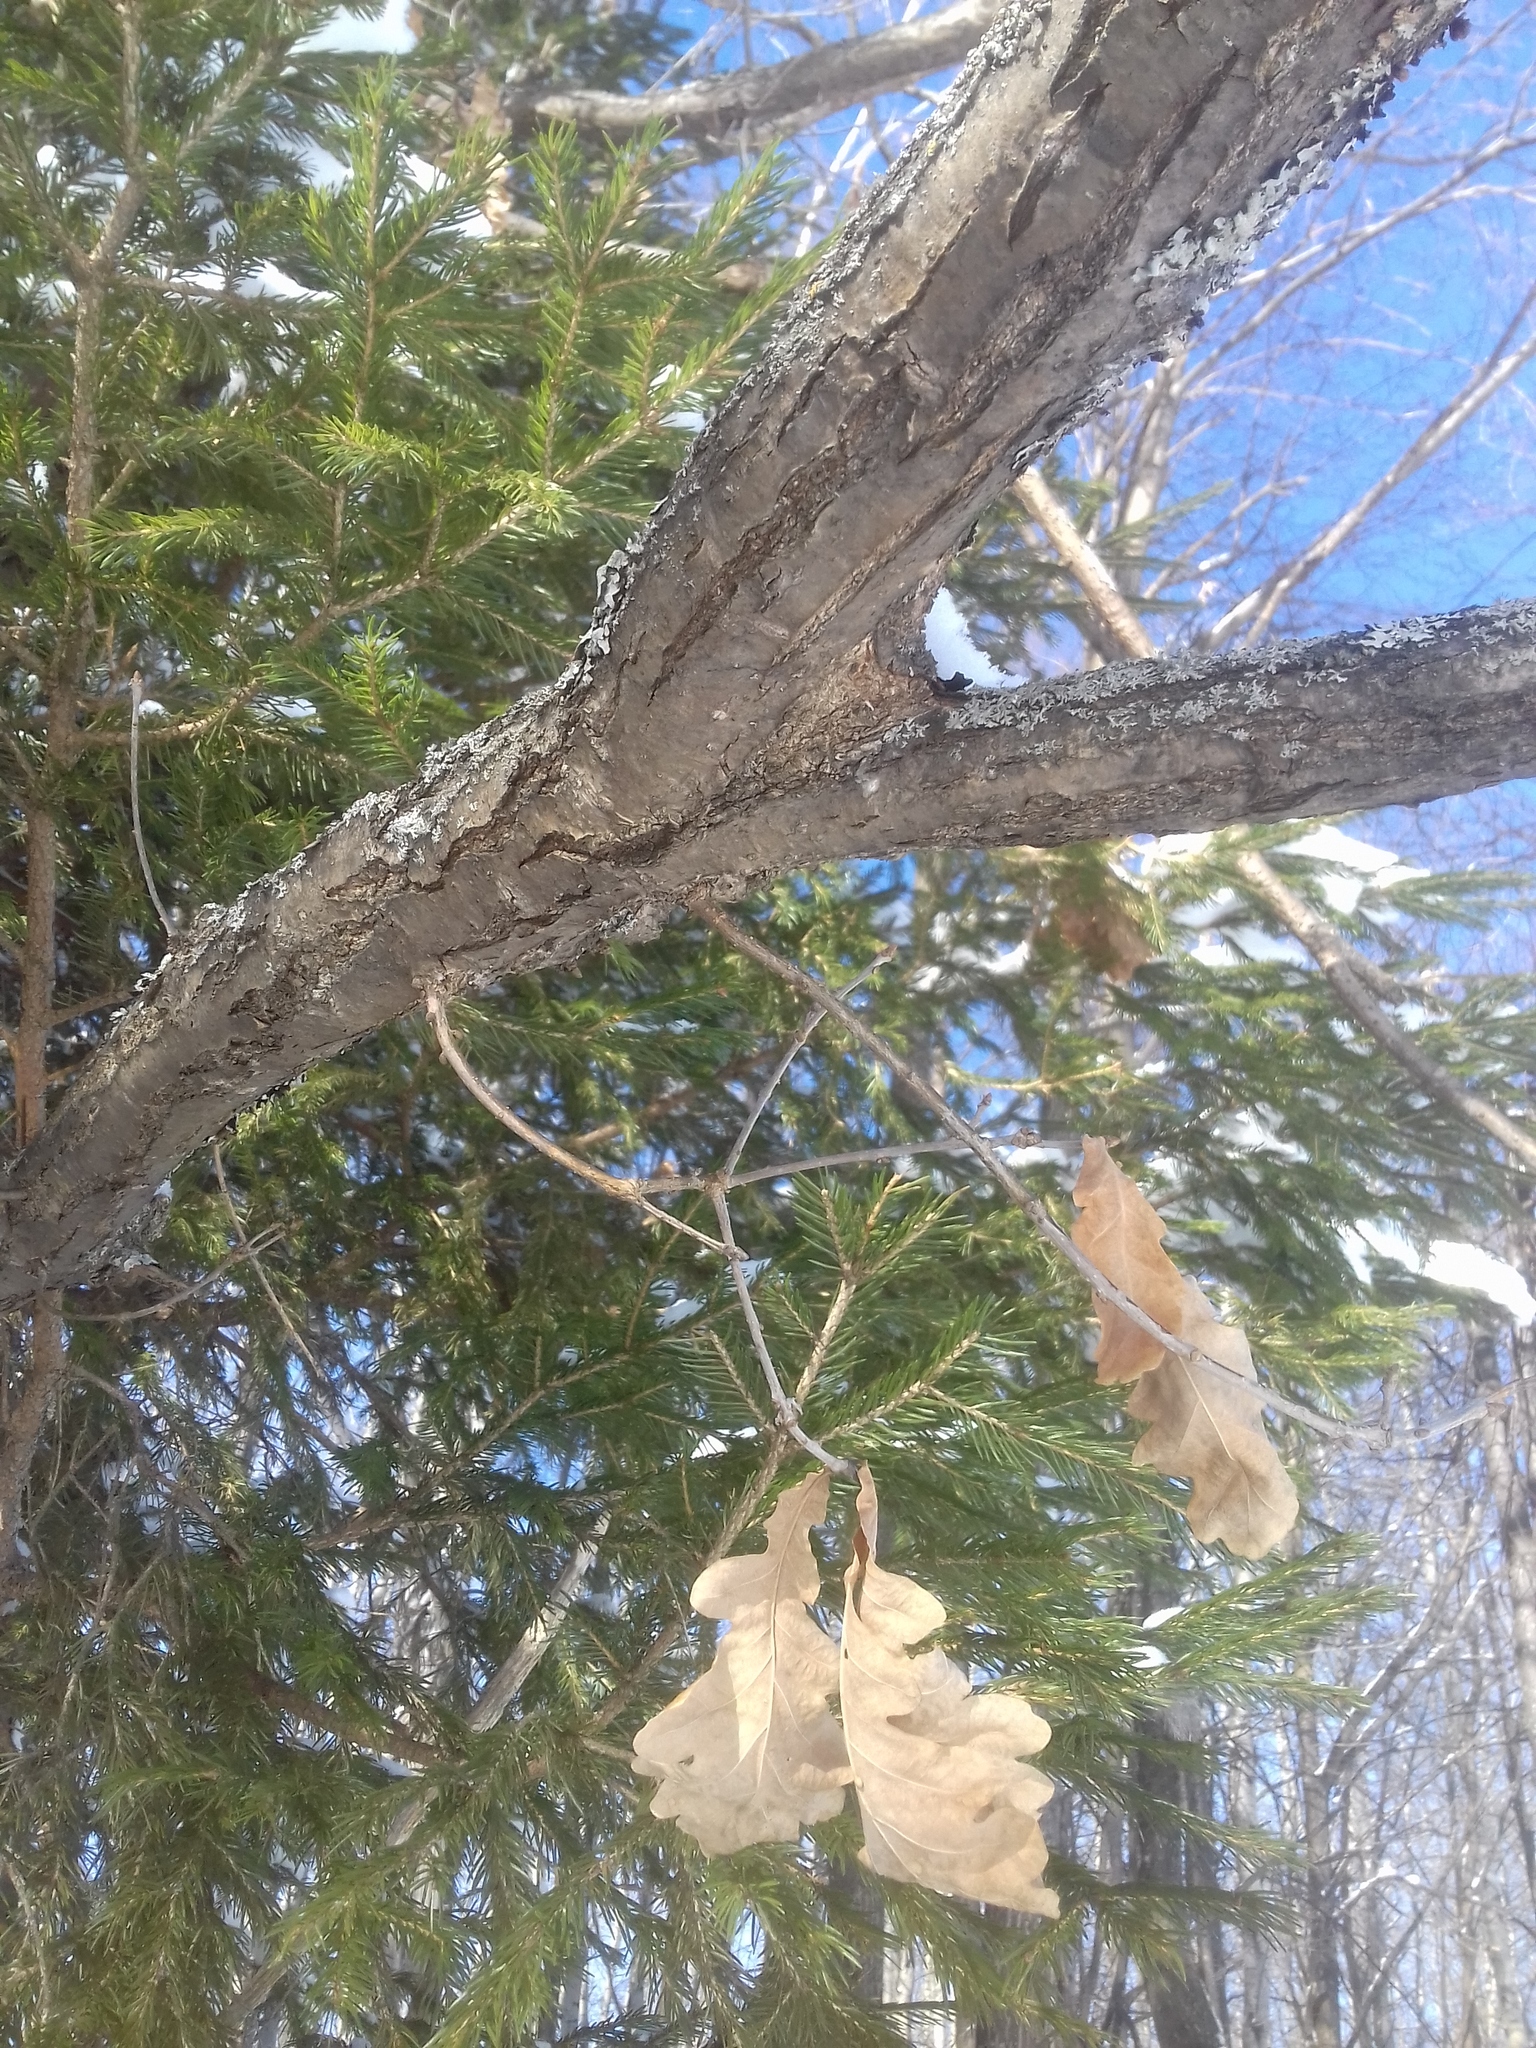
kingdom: Plantae
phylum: Tracheophyta
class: Magnoliopsida
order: Fagales
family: Fagaceae
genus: Quercus
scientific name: Quercus robur
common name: Pedunculate oak
